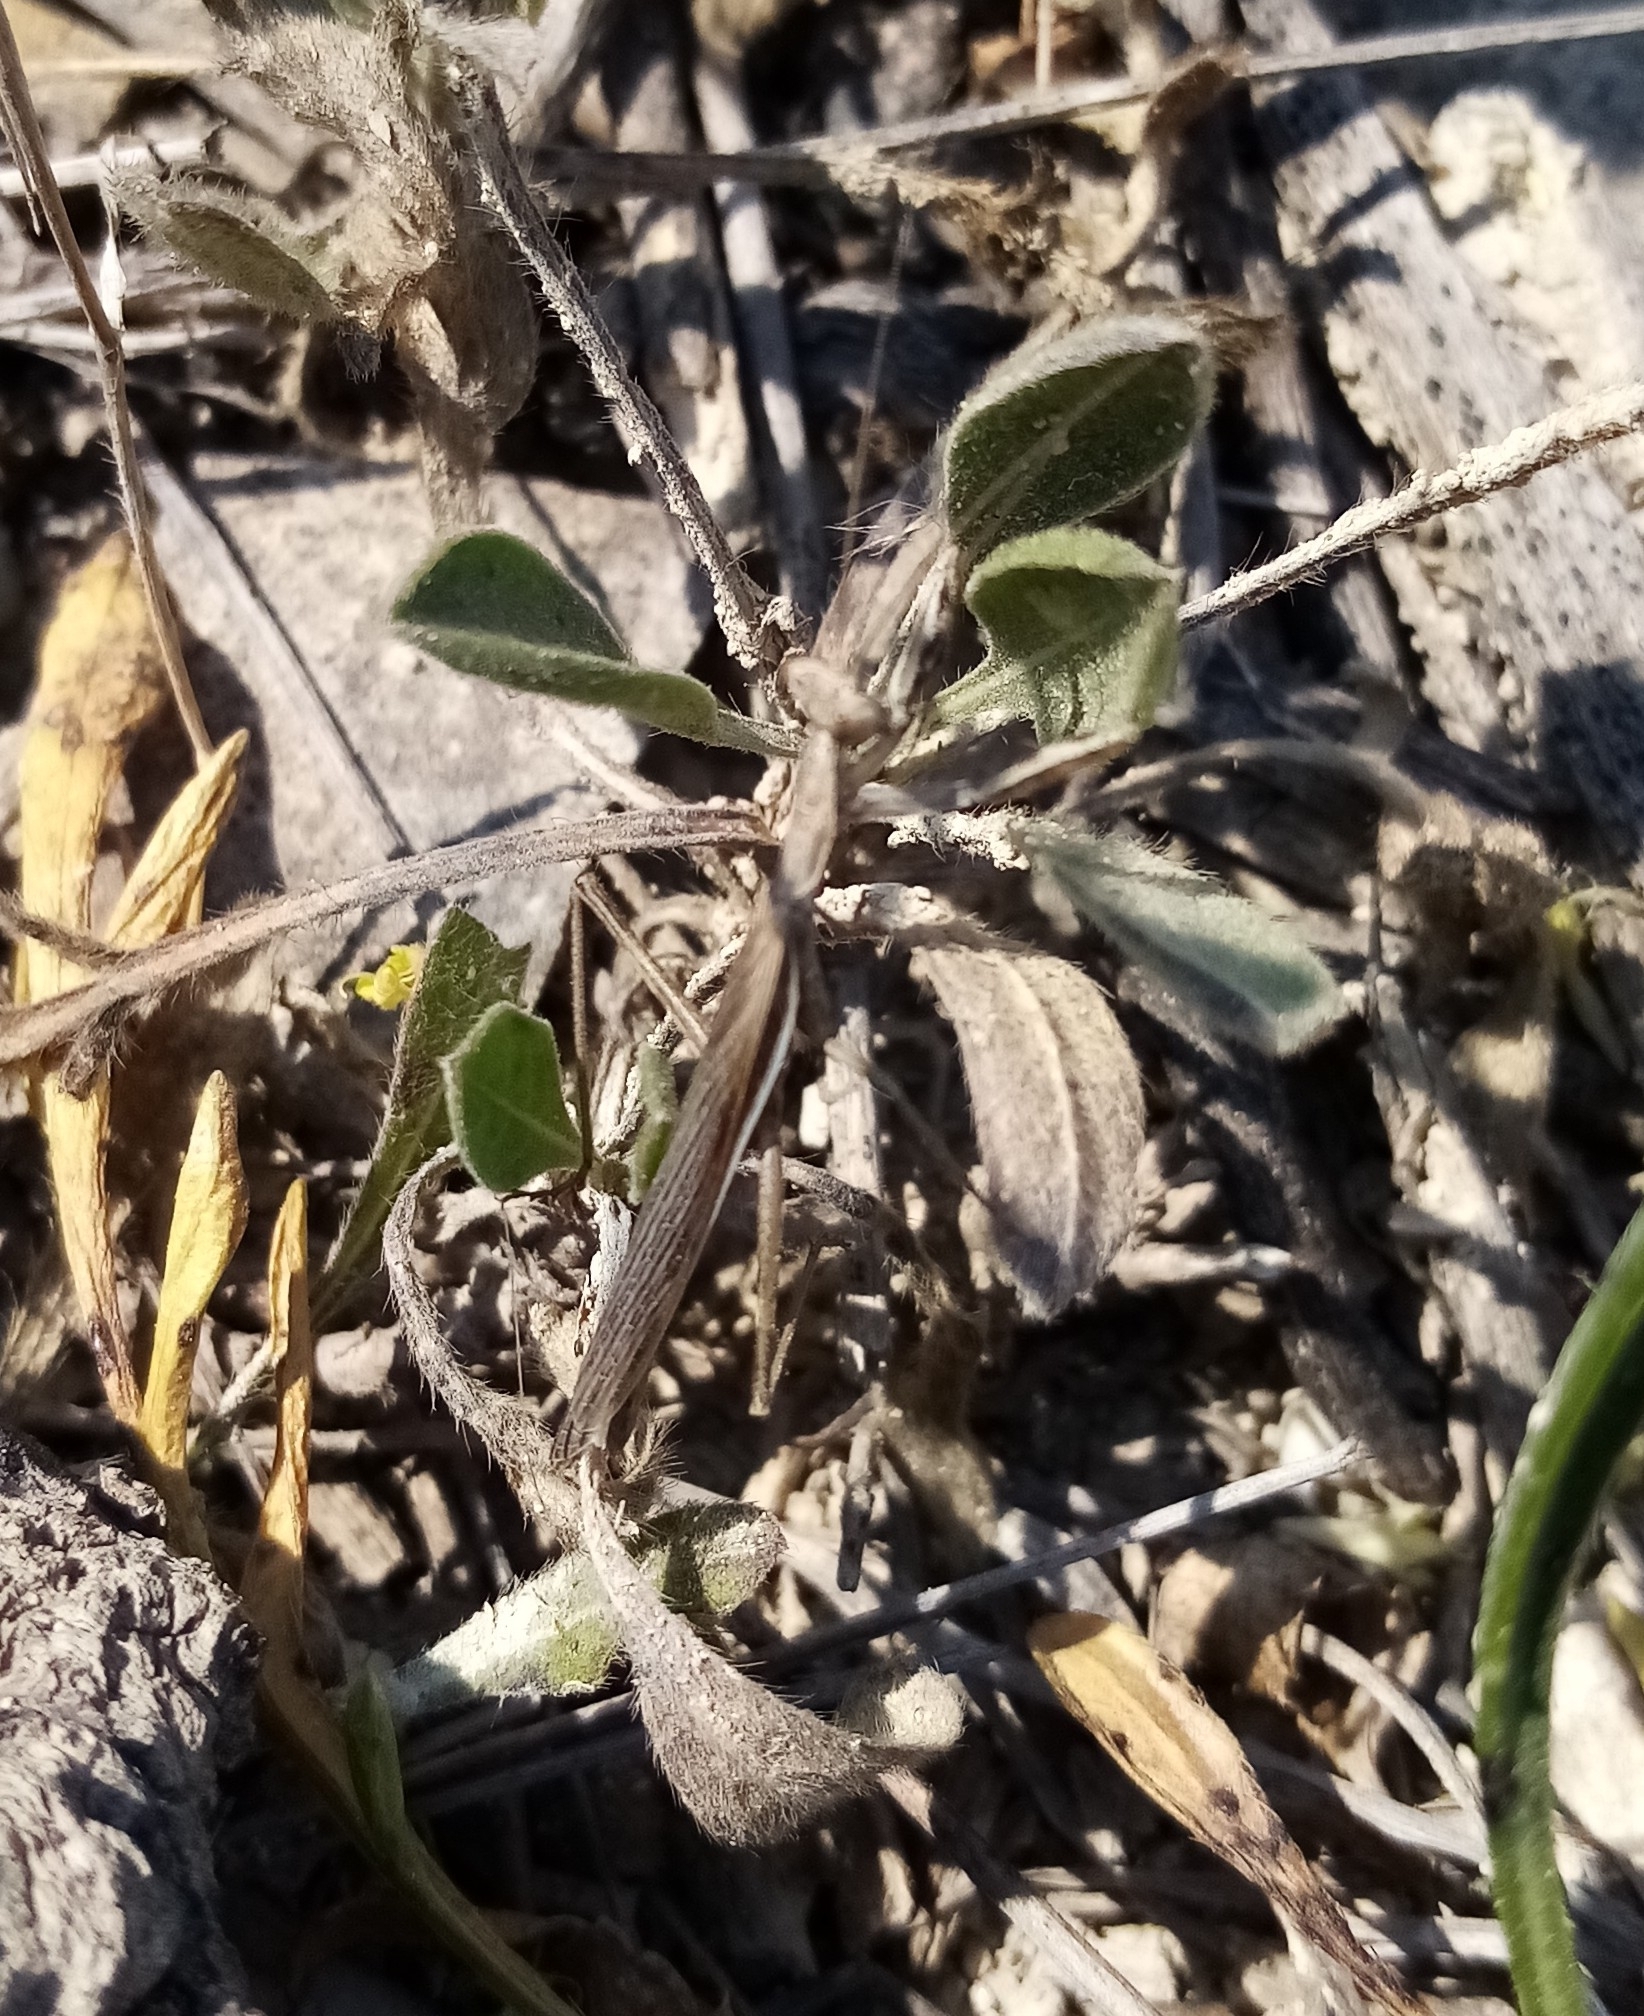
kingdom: Animalia
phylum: Arthropoda
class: Insecta
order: Mantodea
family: Amelidae
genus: Ameles
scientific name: Ameles heldreichi
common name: Heldreich's dwarf mantis
